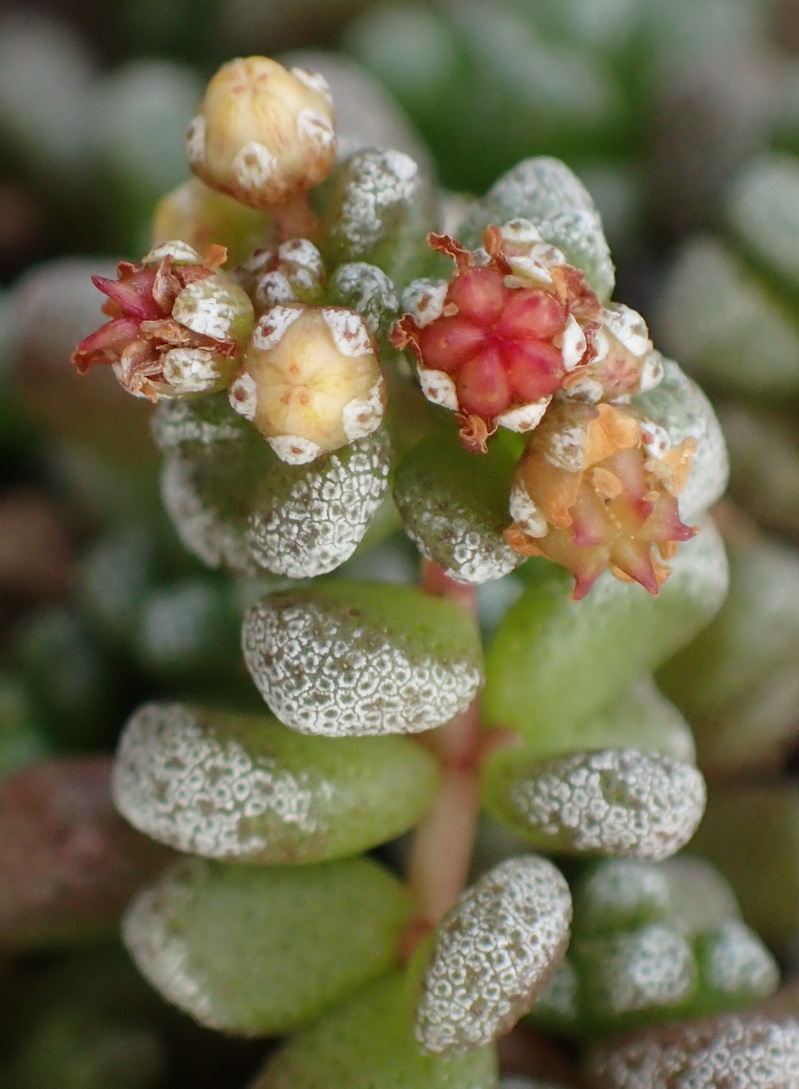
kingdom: Plantae
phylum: Tracheophyta
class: Magnoliopsida
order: Saxifragales
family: Crassulaceae
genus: Crassula
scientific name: Crassula corallina
